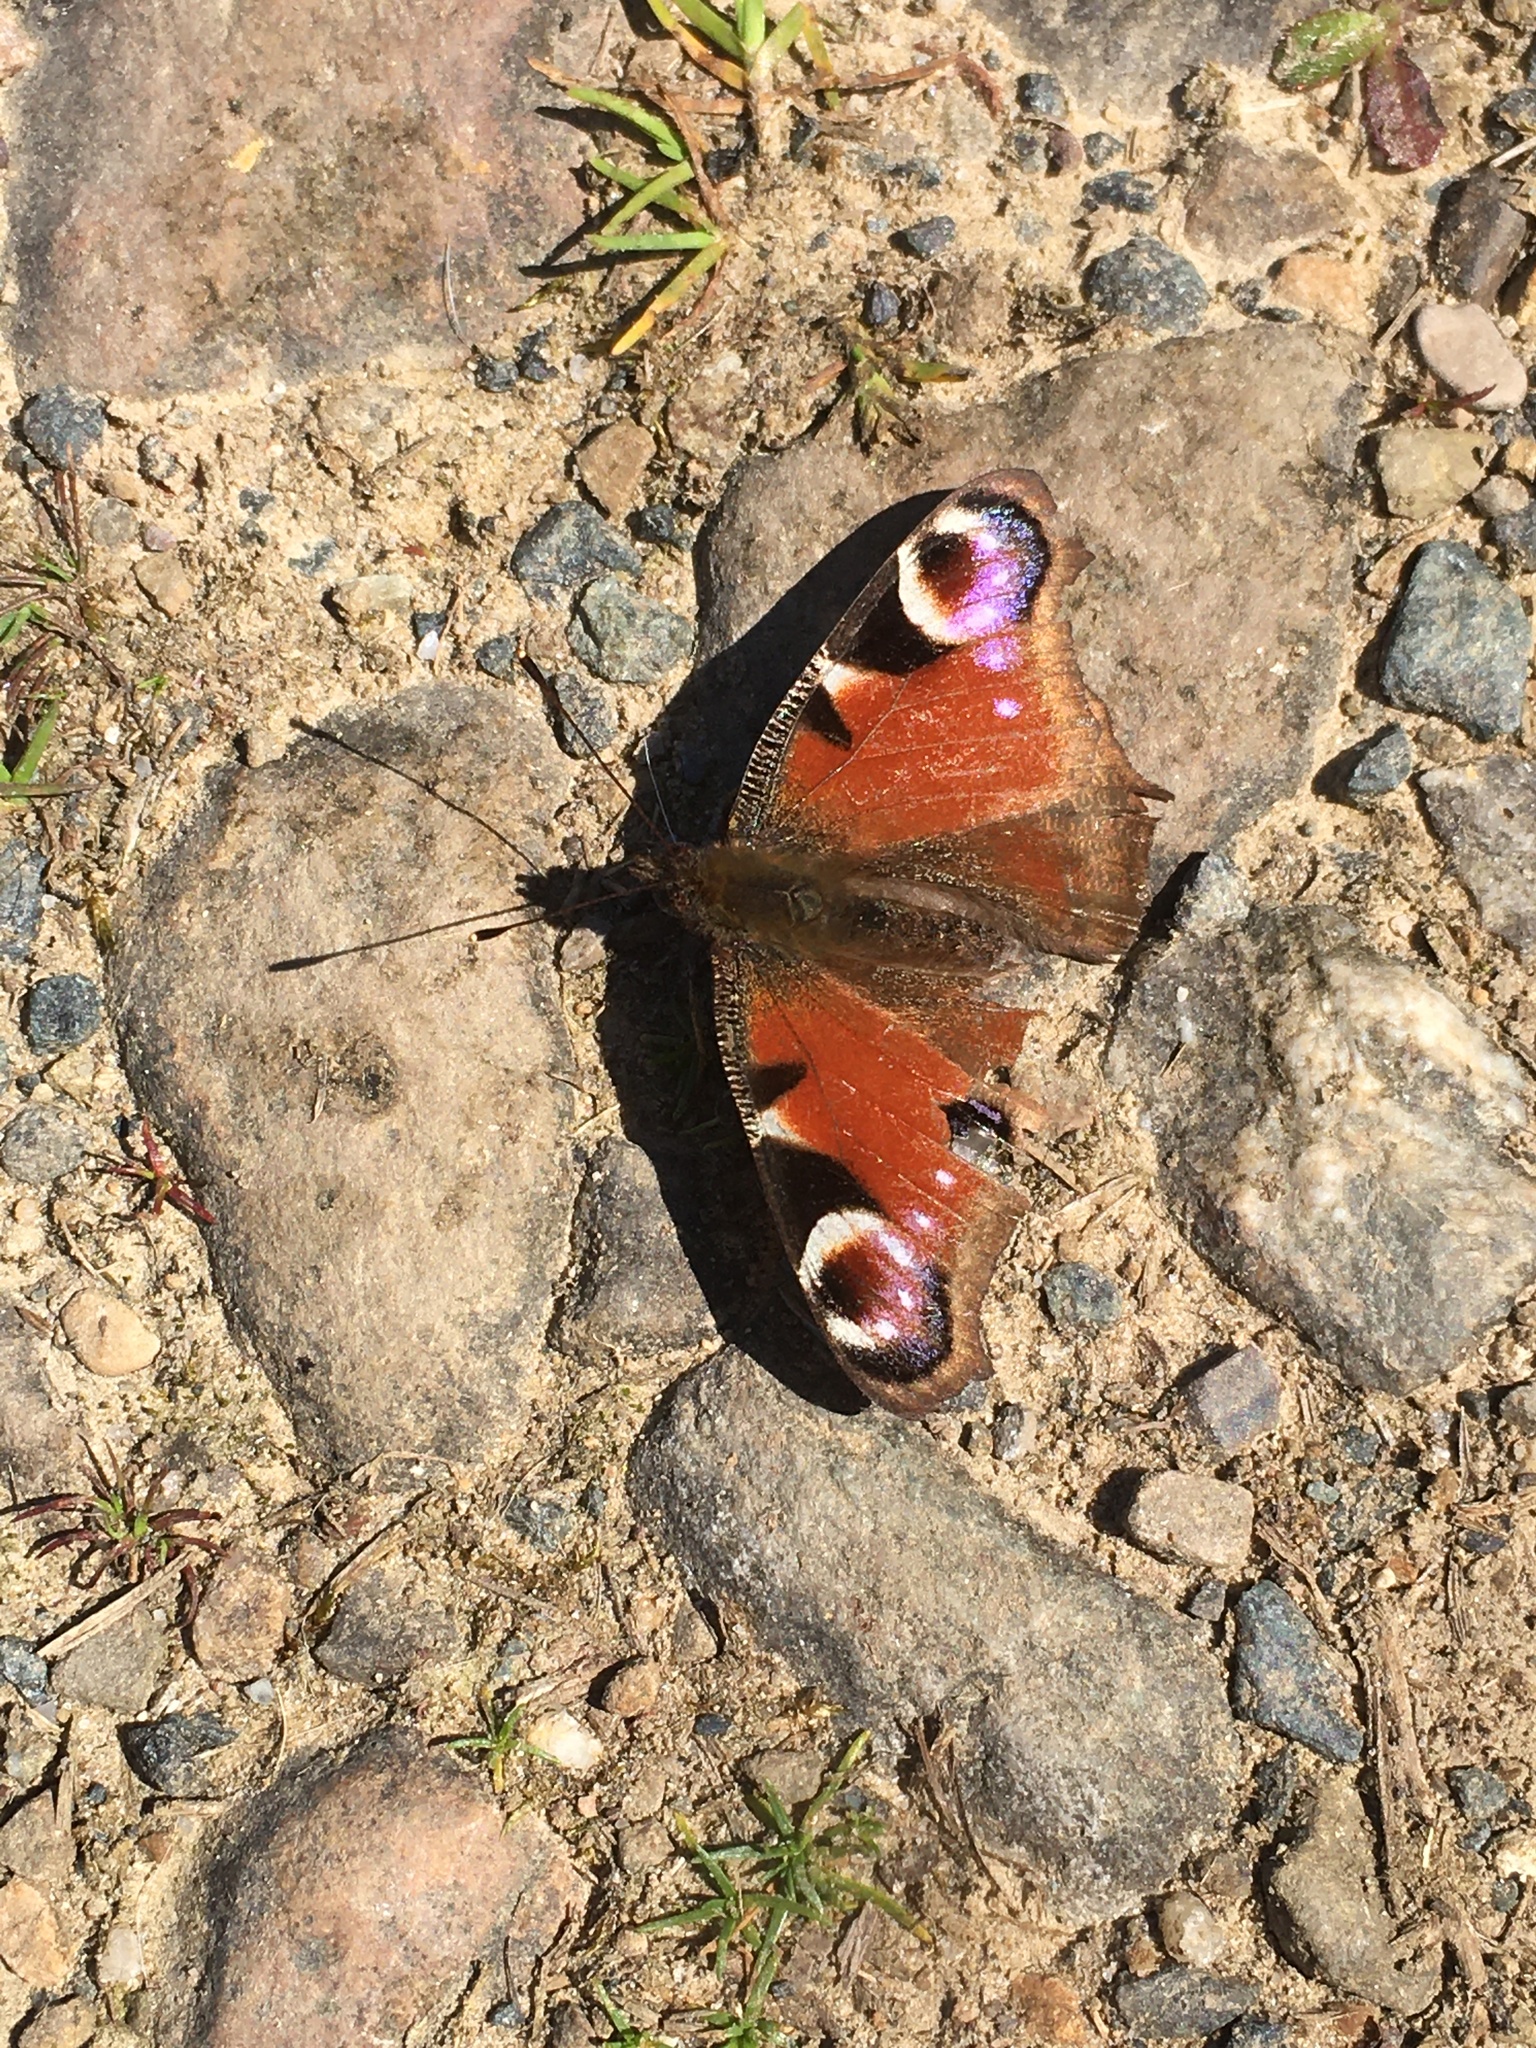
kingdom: Animalia
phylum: Arthropoda
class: Insecta
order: Lepidoptera
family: Nymphalidae
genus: Aglais
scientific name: Aglais io
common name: Peacock
